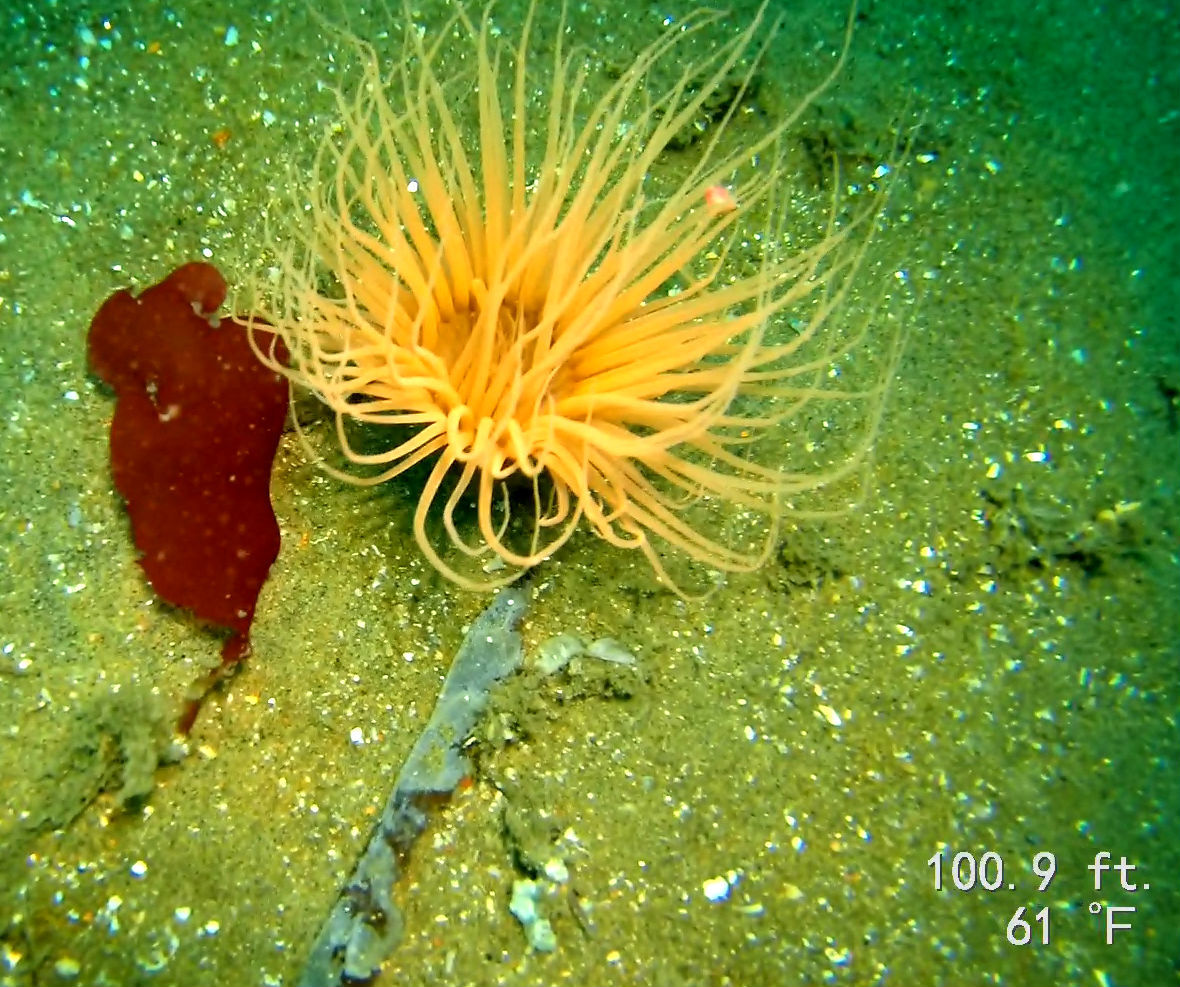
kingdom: Animalia
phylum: Cnidaria
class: Anthozoa
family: Cerianthidae
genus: Pachycerianthus
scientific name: Pachycerianthus fimbriatus
